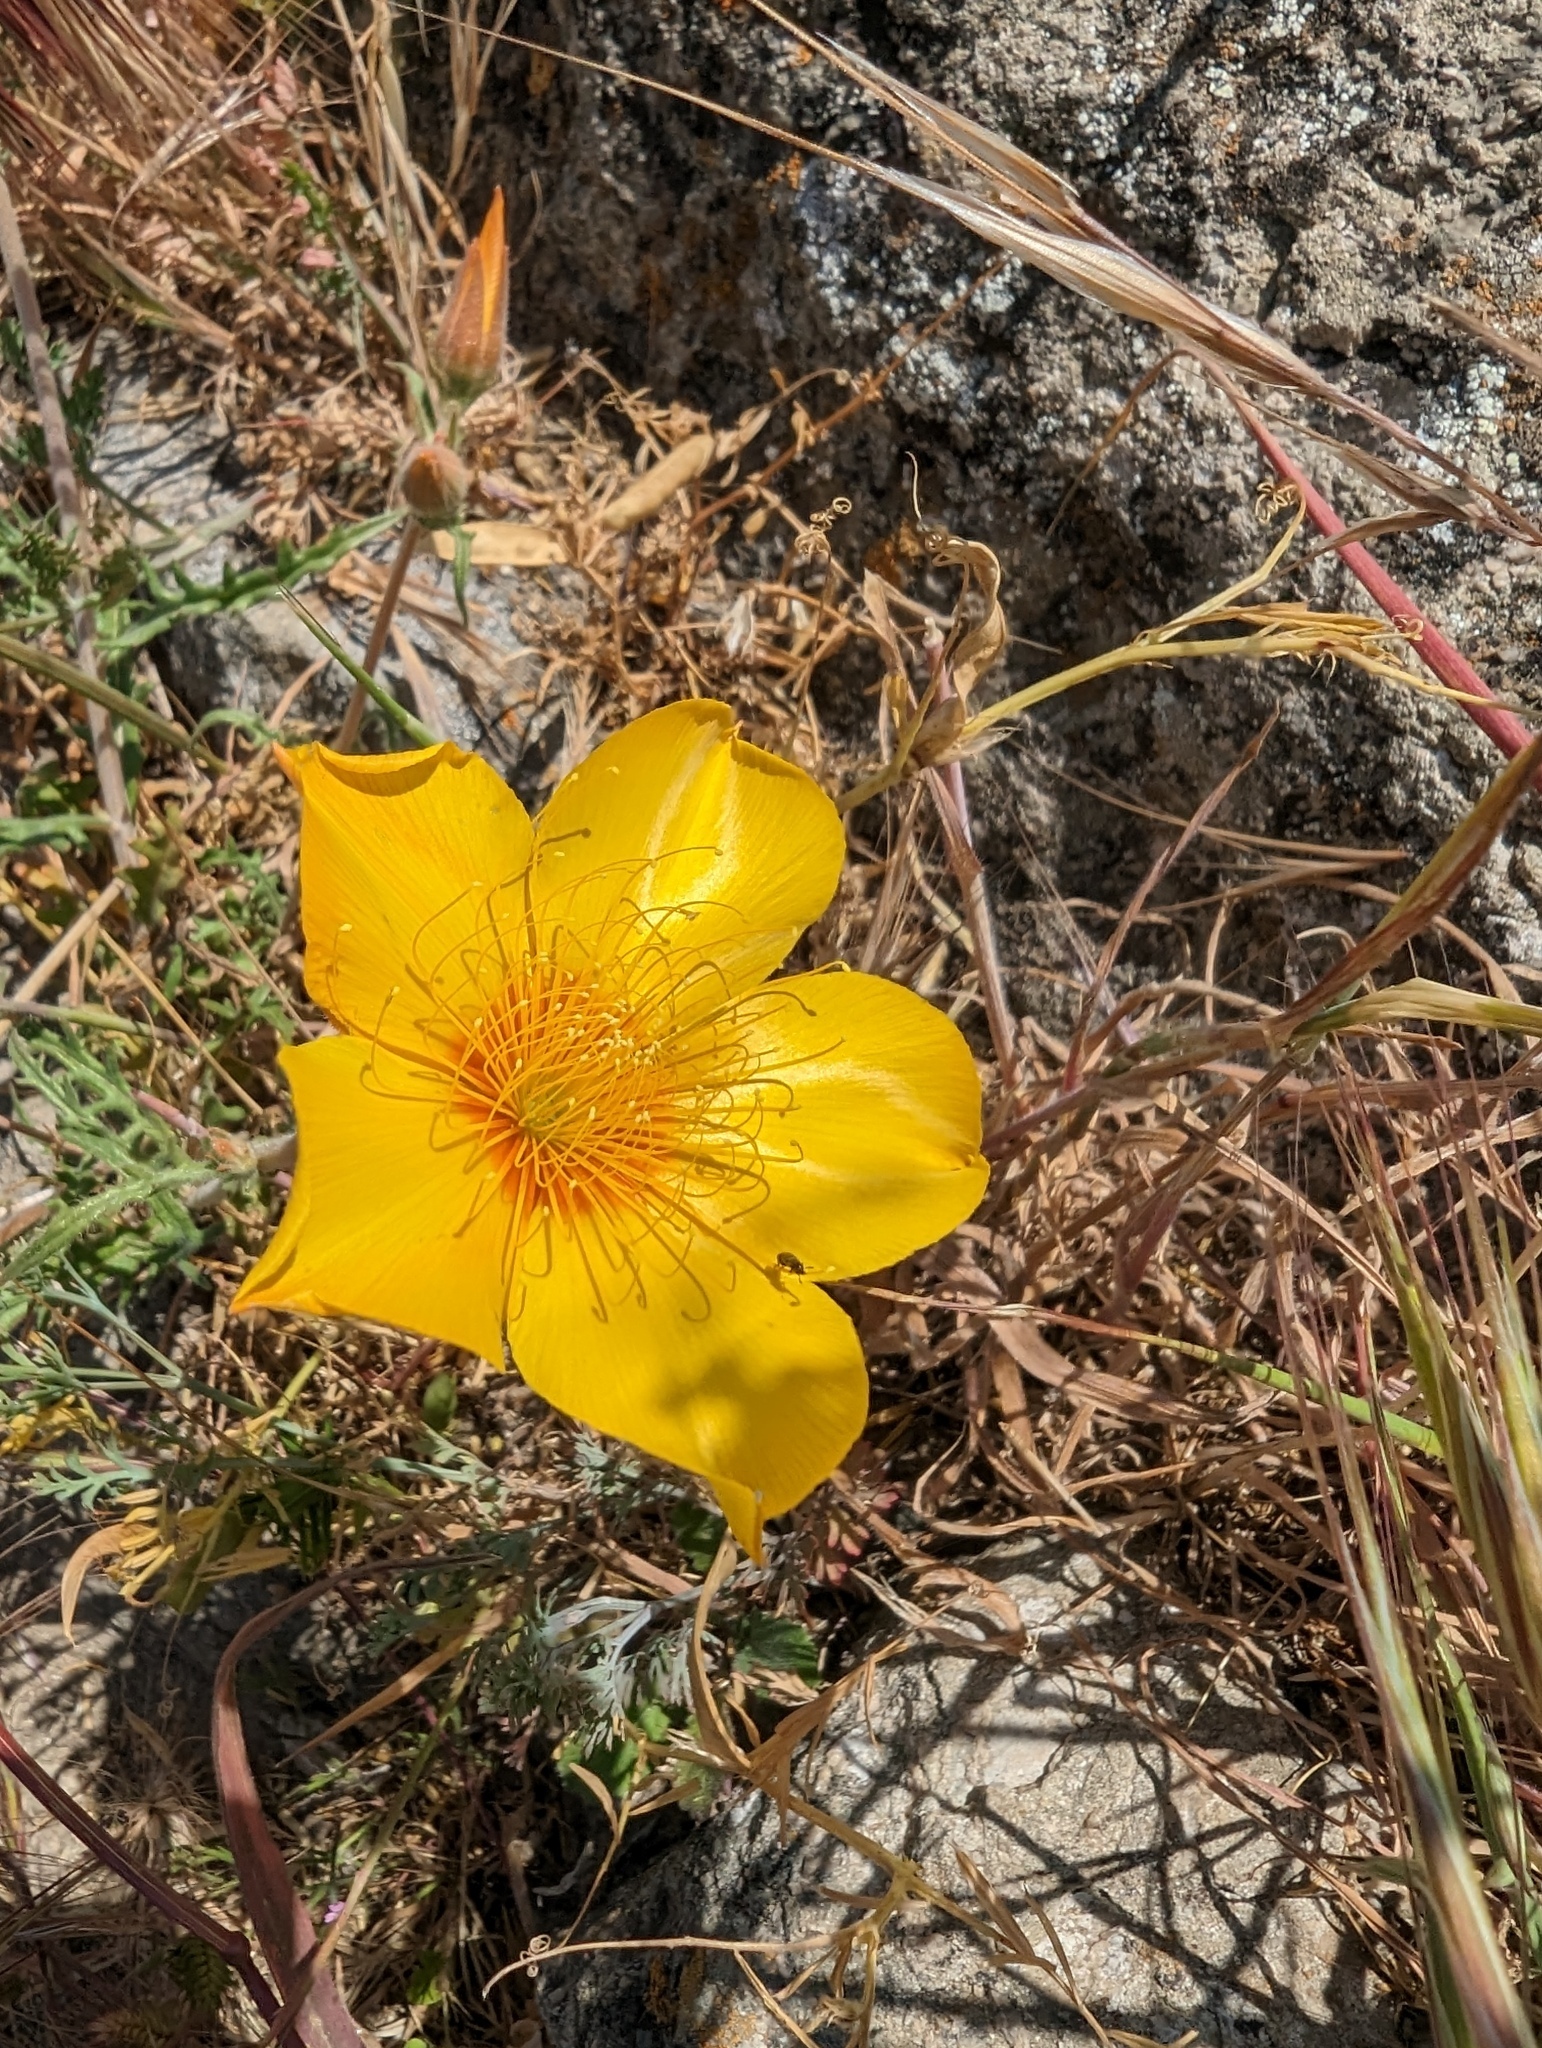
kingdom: Plantae
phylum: Tracheophyta
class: Magnoliopsida
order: Cornales
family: Loasaceae
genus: Mentzelia
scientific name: Mentzelia lindleyi
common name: Golden bartonia
